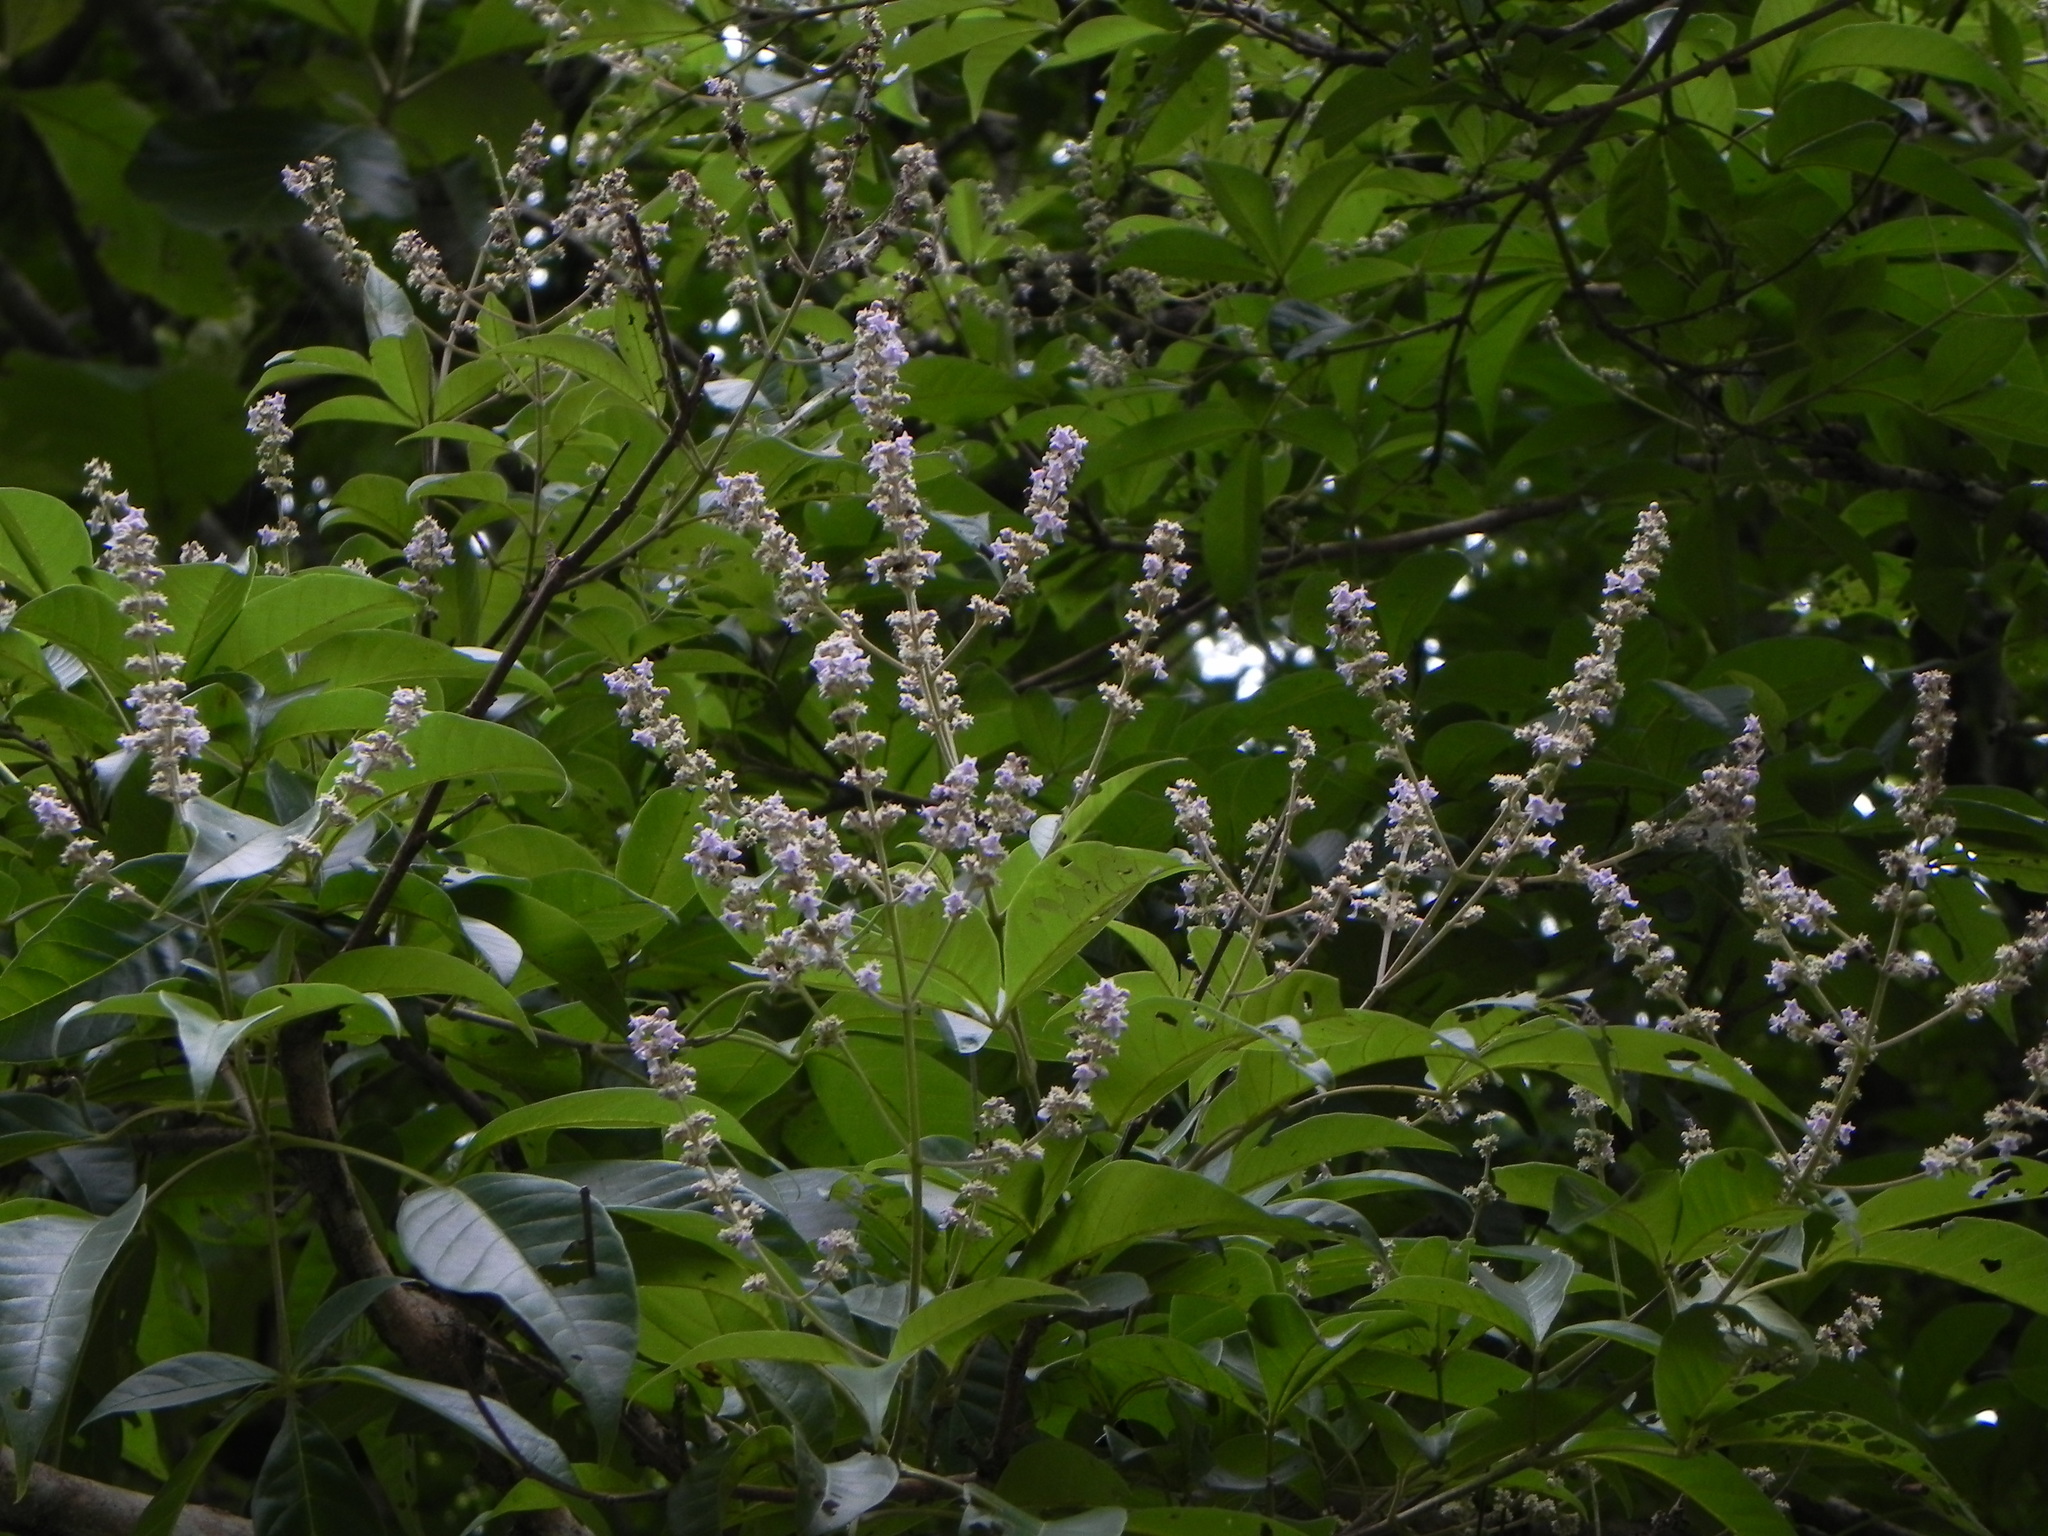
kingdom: Plantae
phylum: Tracheophyta
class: Magnoliopsida
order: Lamiales
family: Lamiaceae
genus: Vitex
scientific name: Vitex altissima
